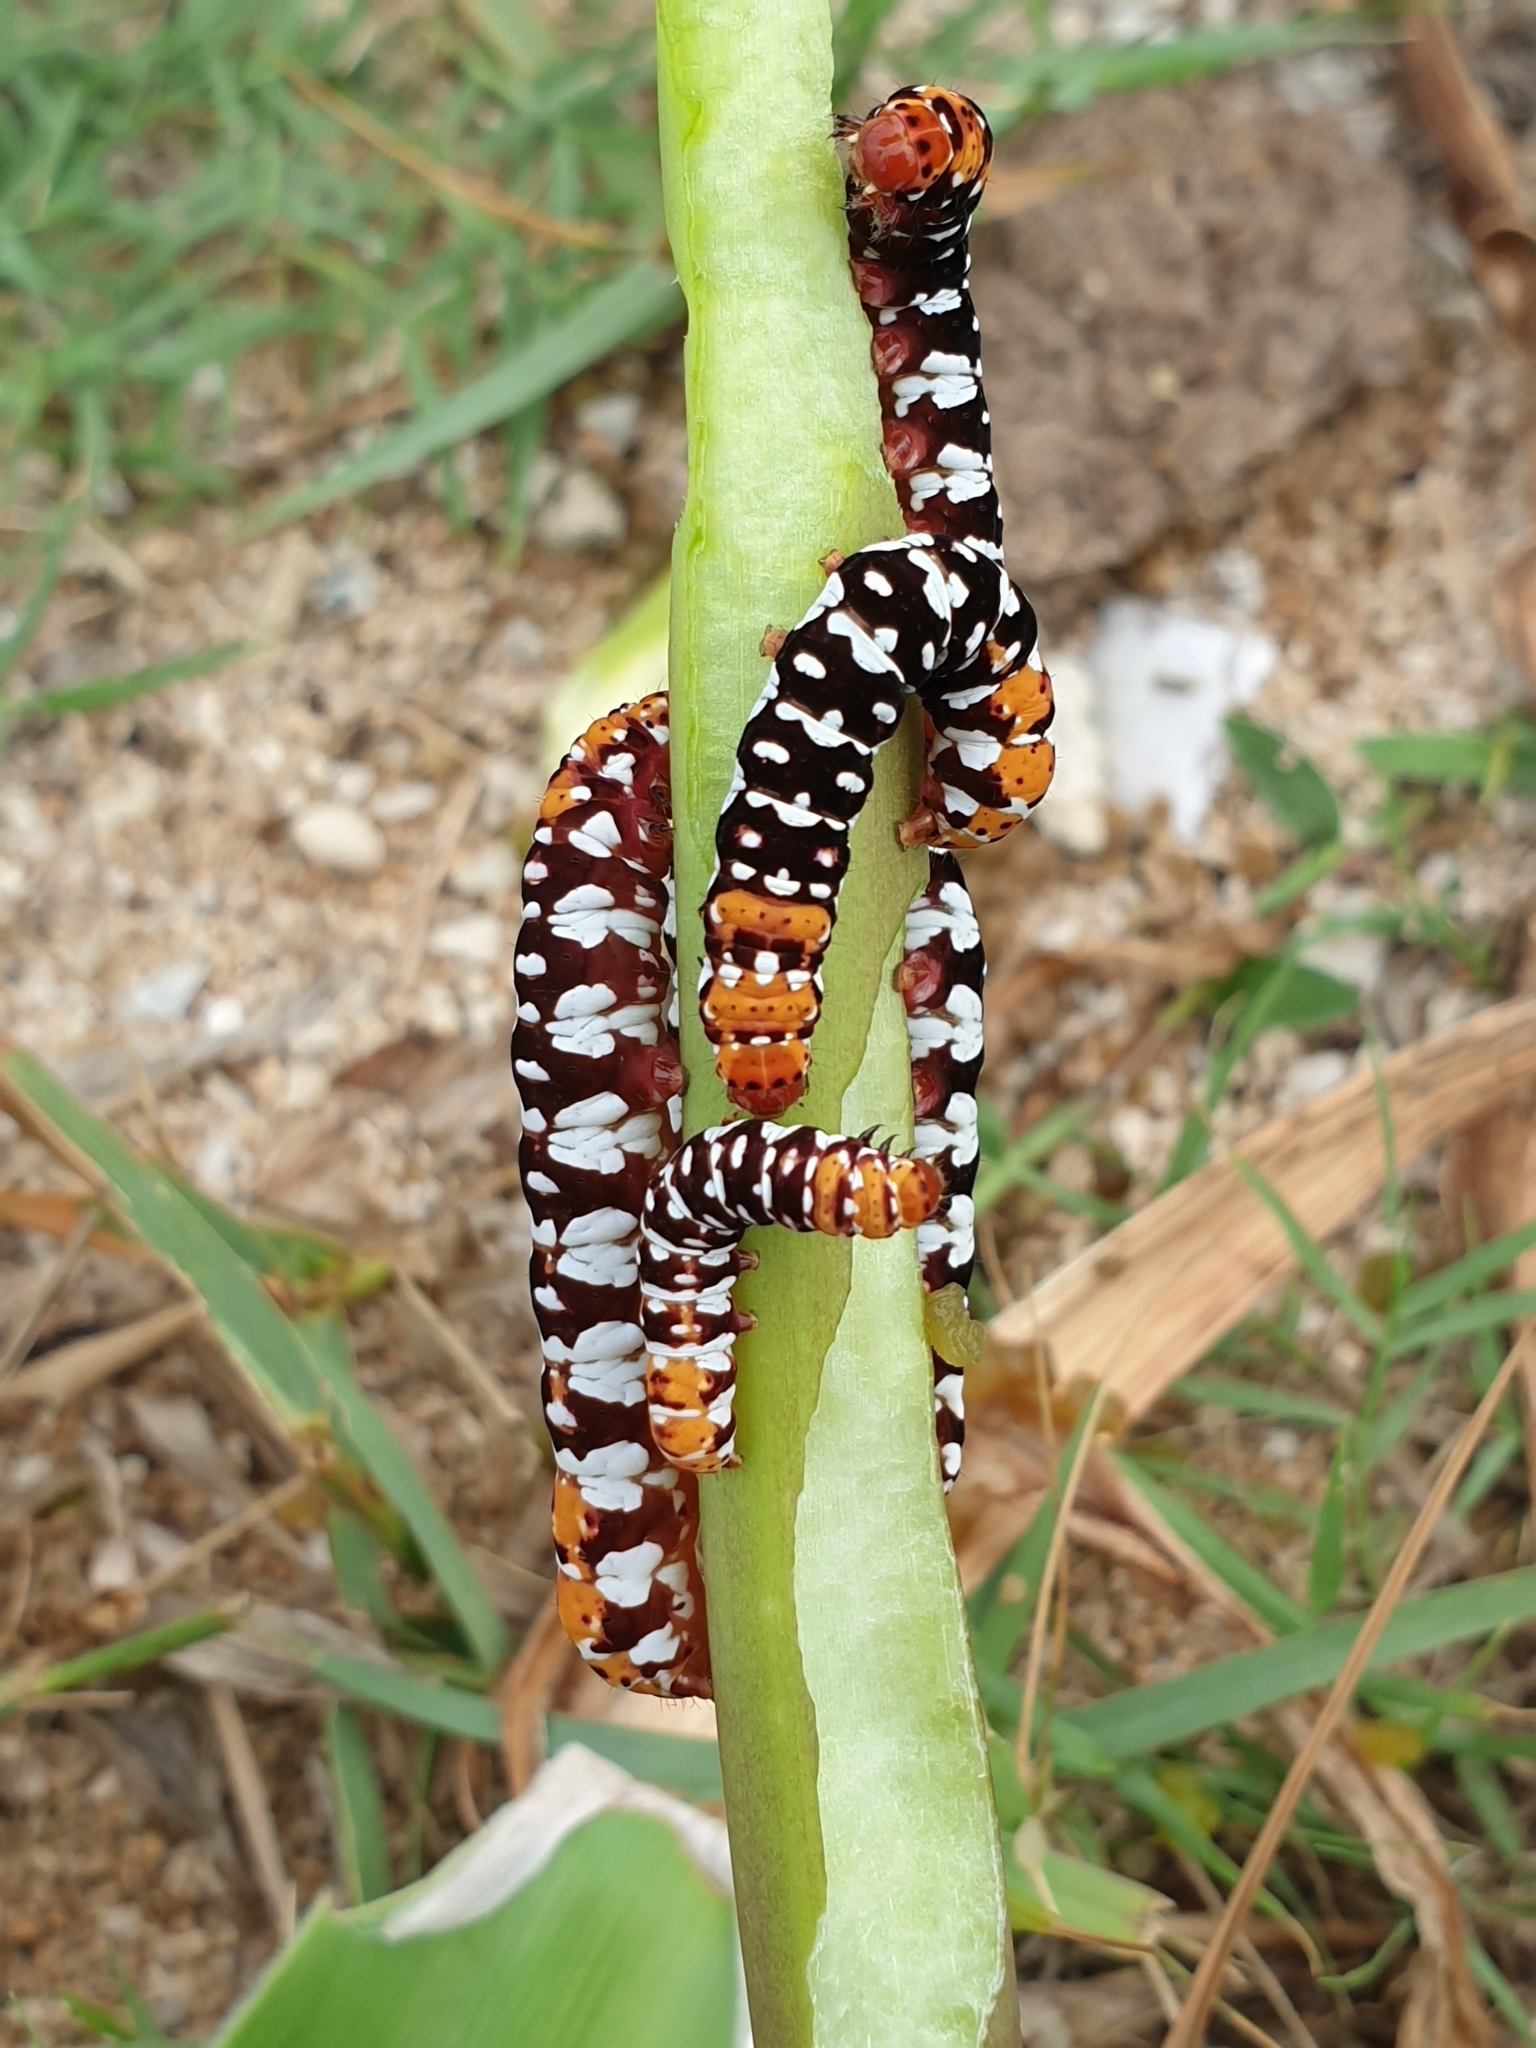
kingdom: Animalia
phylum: Arthropoda
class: Insecta
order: Lepidoptera
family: Noctuidae
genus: Polytela
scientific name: Polytela gloriosae
